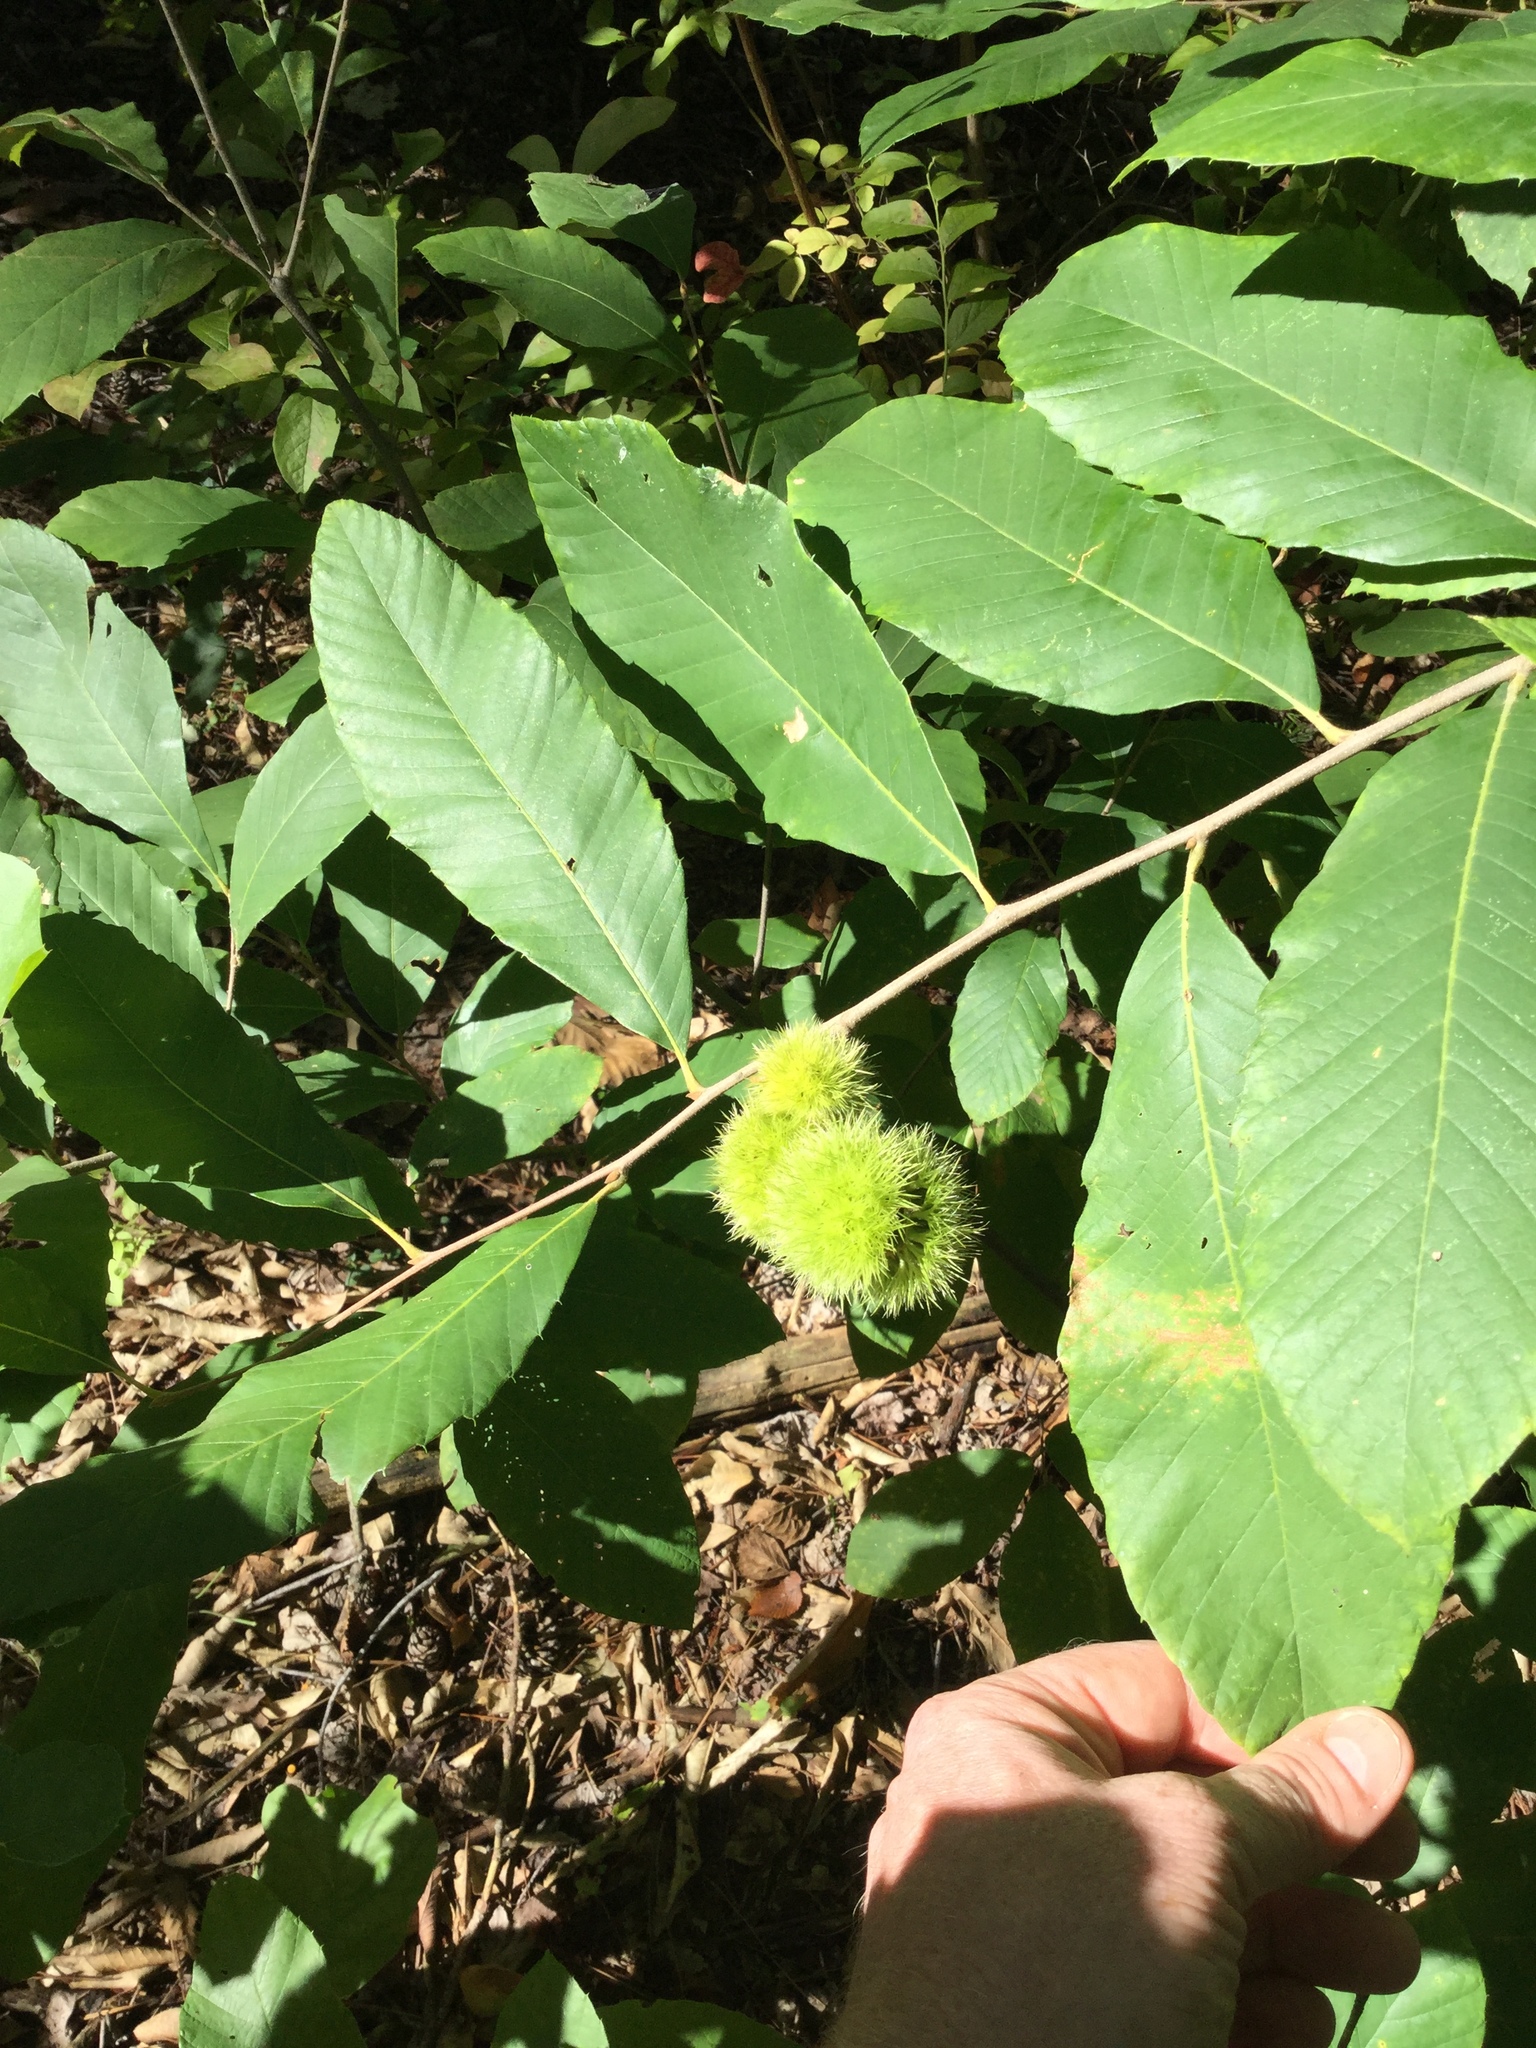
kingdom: Plantae
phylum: Tracheophyta
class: Magnoliopsida
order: Fagales
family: Fagaceae
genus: Castanea
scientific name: Castanea pumila
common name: Chinkapin
